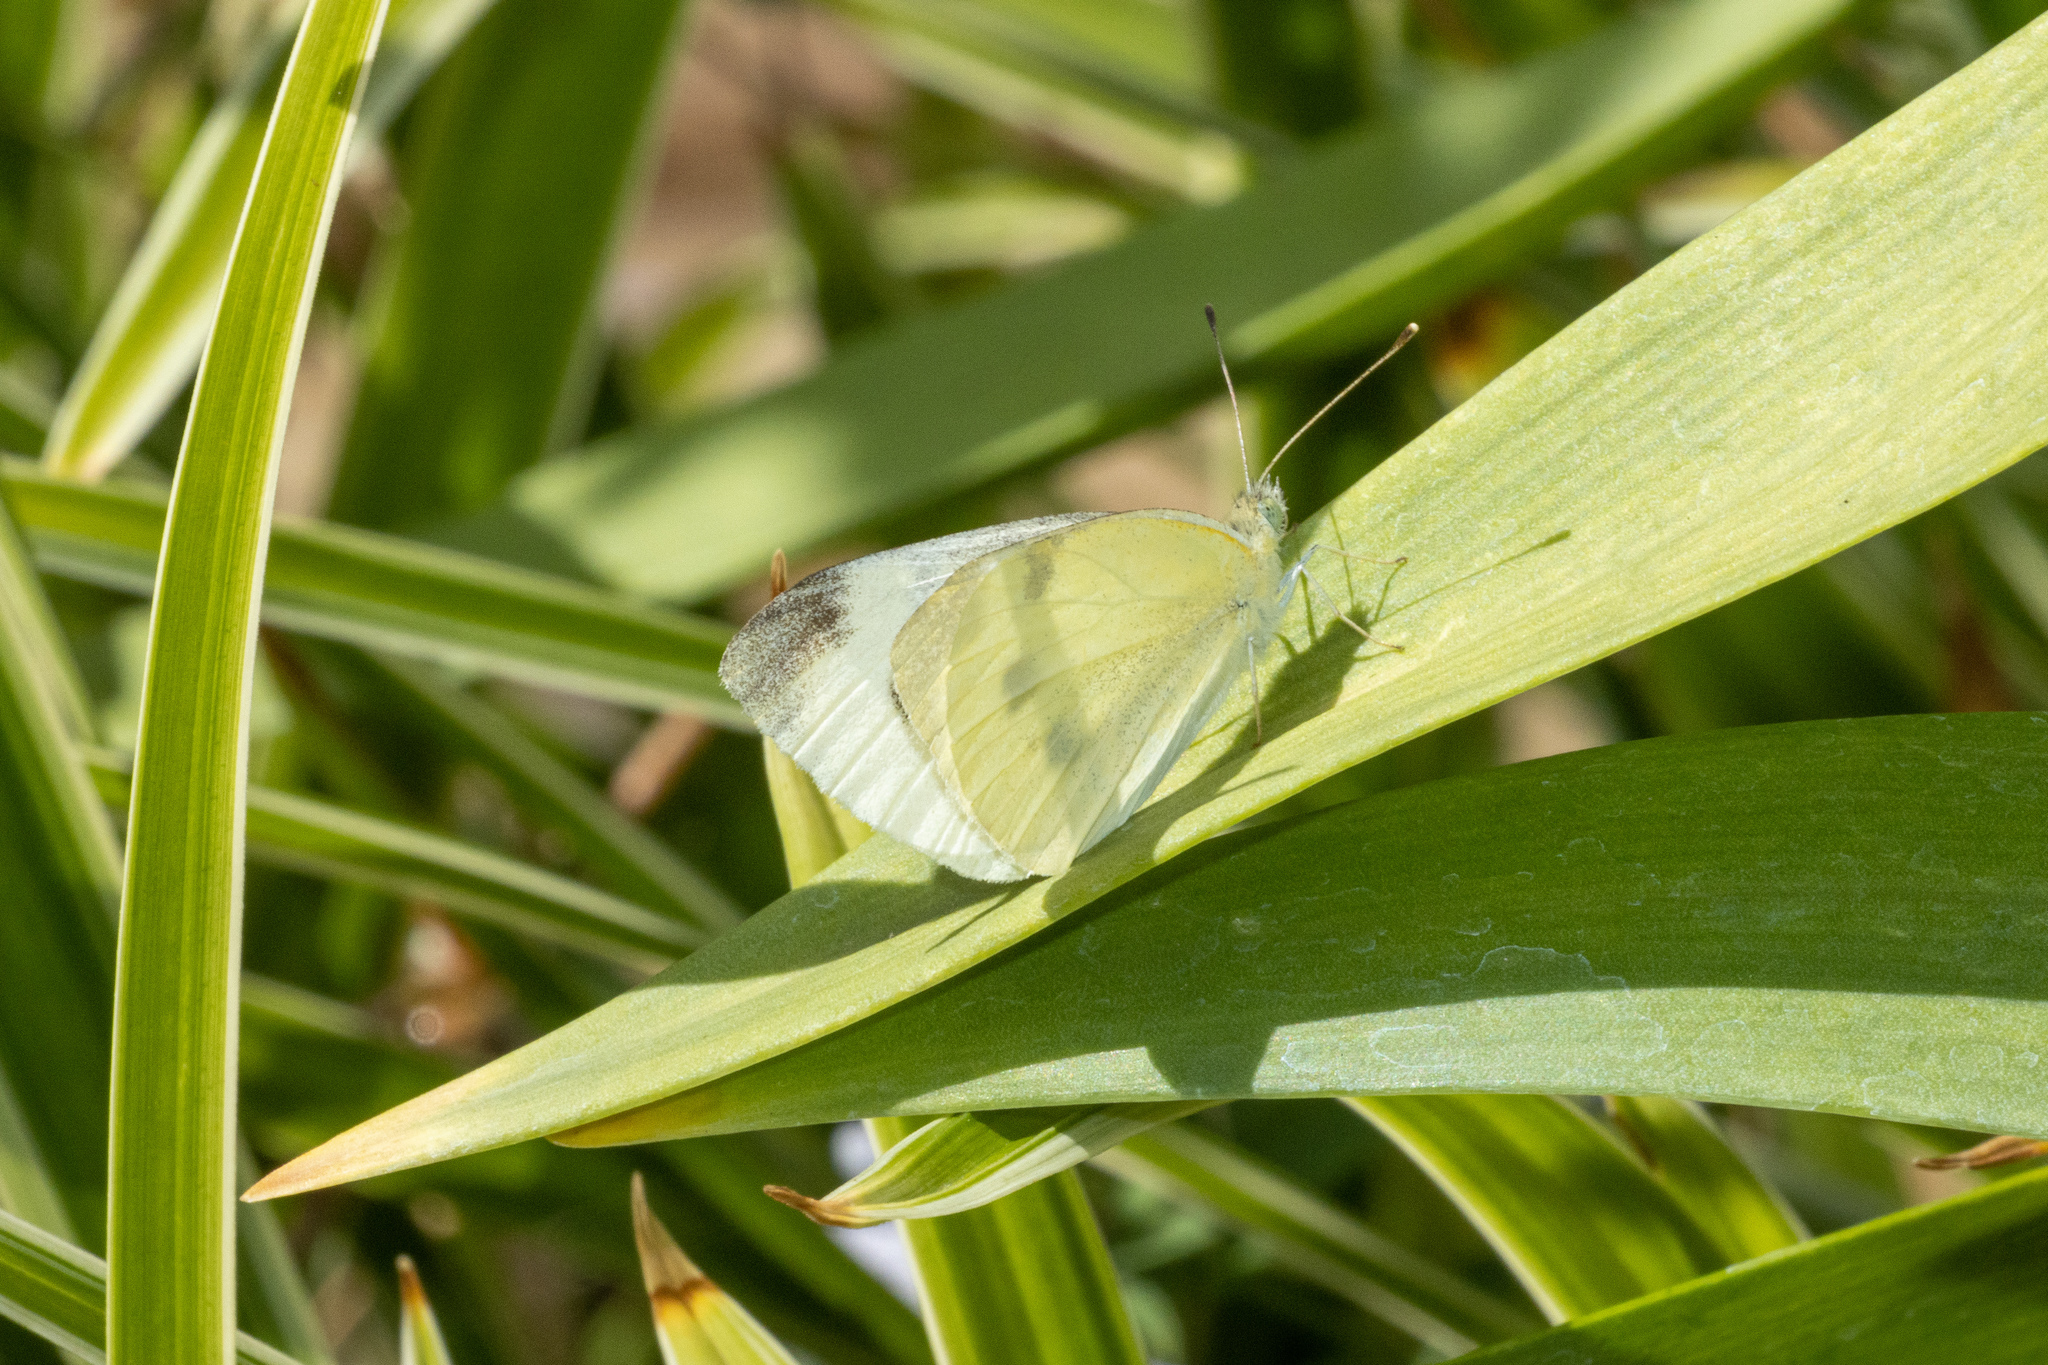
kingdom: Animalia
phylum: Arthropoda
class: Insecta
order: Lepidoptera
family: Pieridae
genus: Pieris
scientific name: Pieris rapae
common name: Small white
